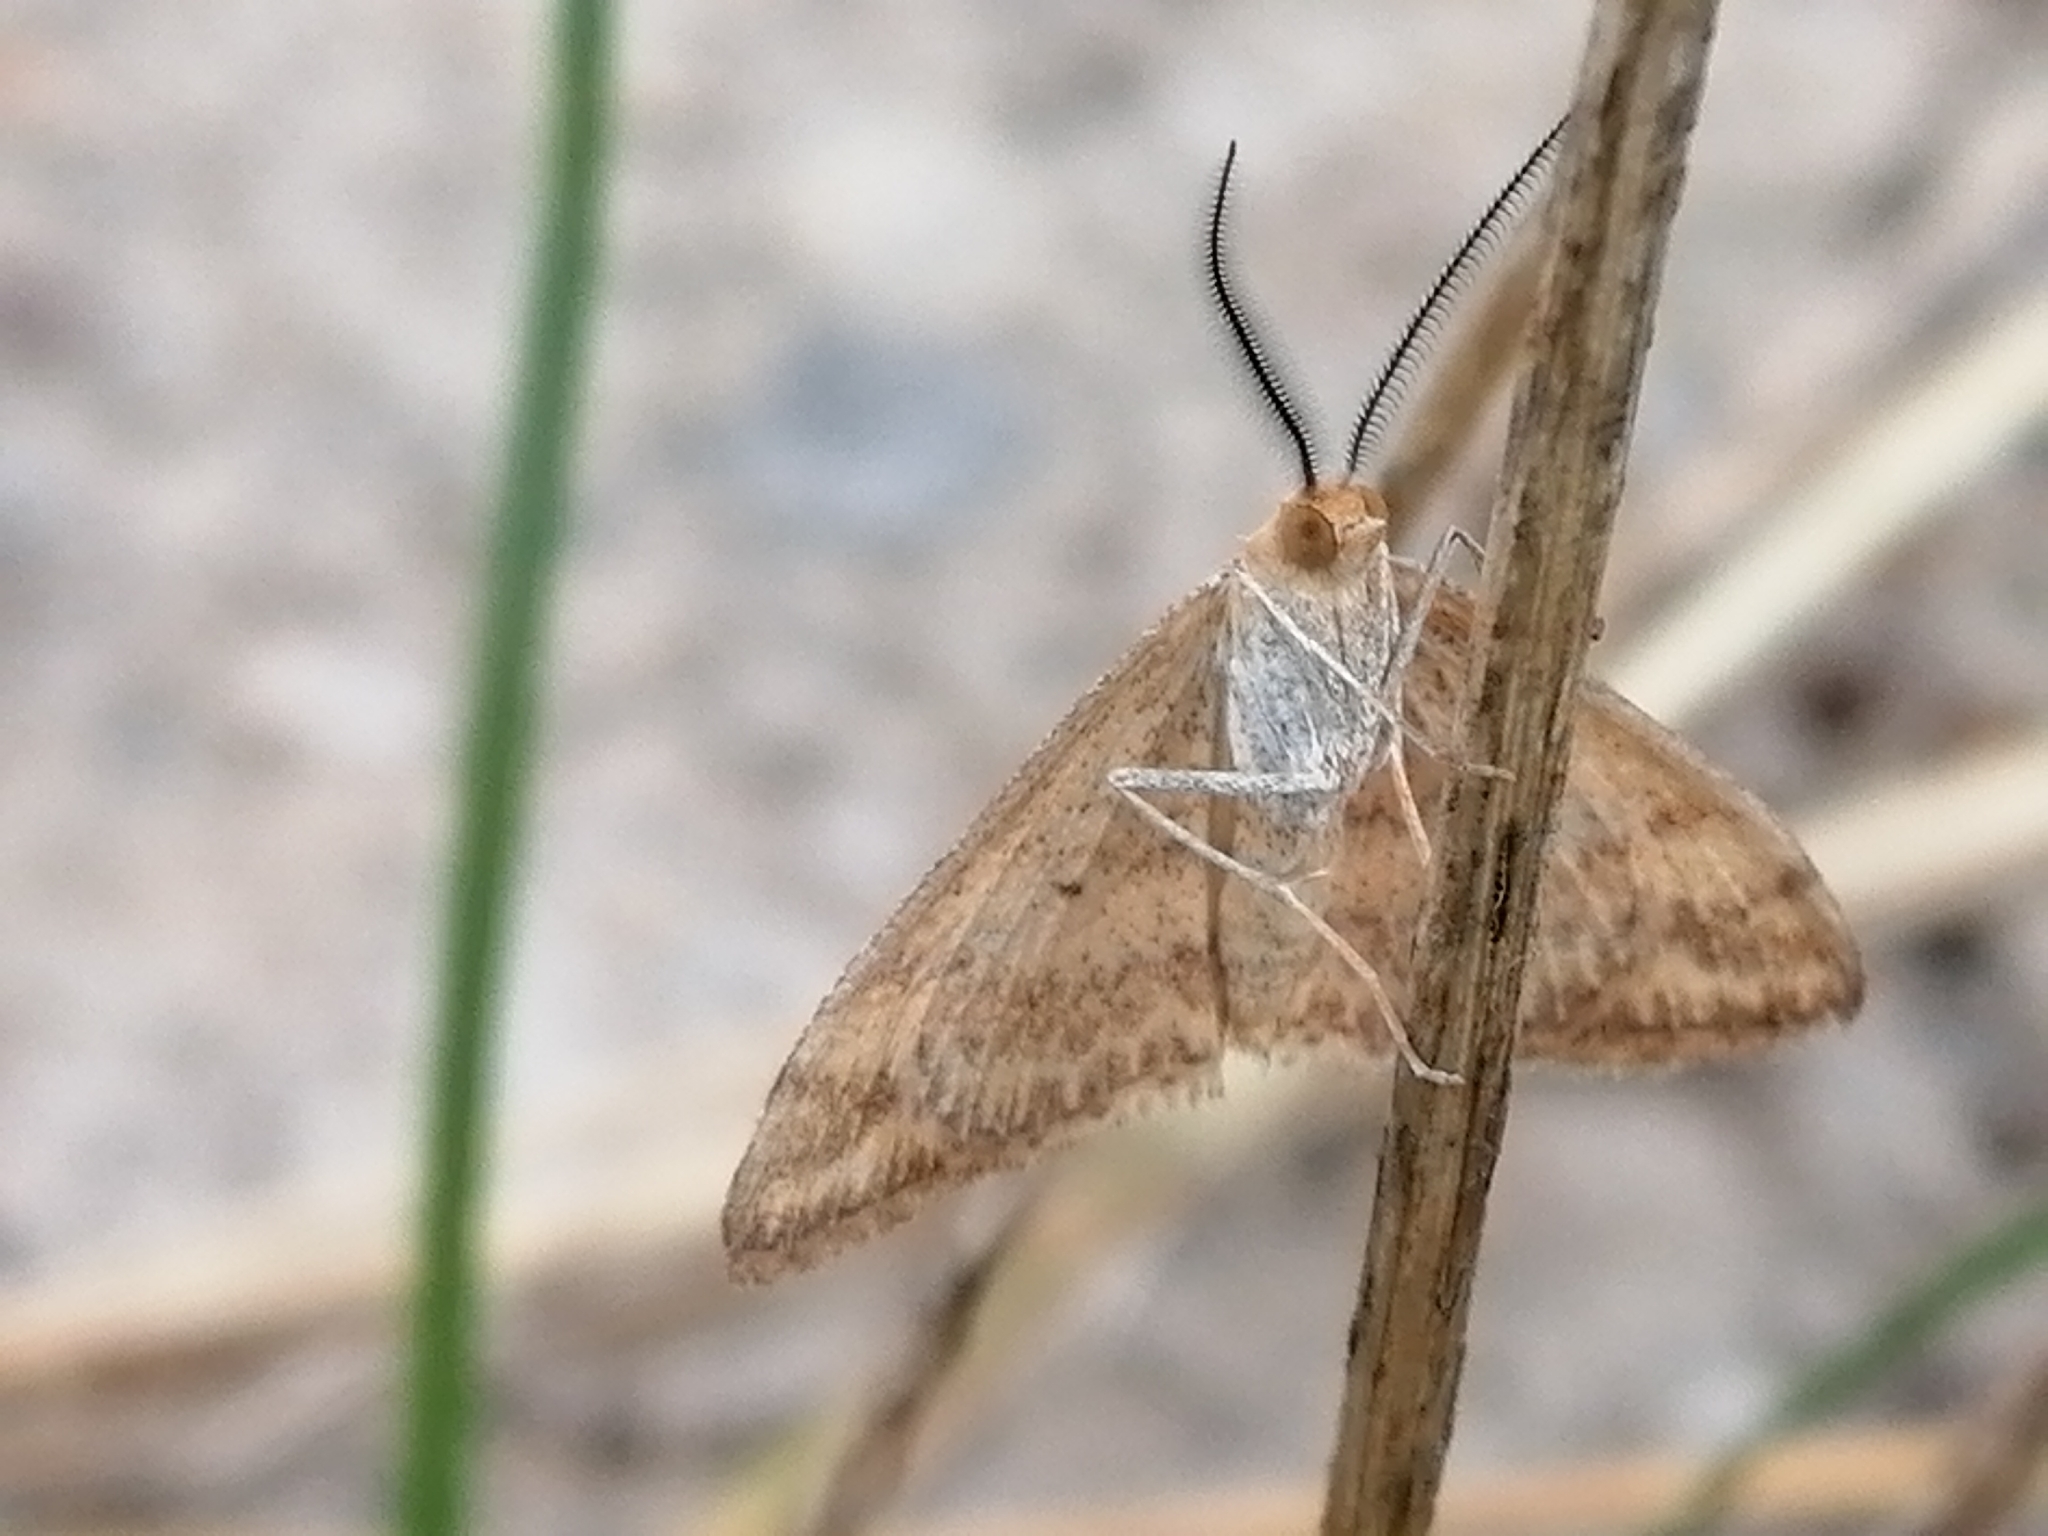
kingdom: Animalia
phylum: Arthropoda
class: Insecta
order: Lepidoptera
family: Geometridae
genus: Scopula
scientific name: Scopula rubraria
